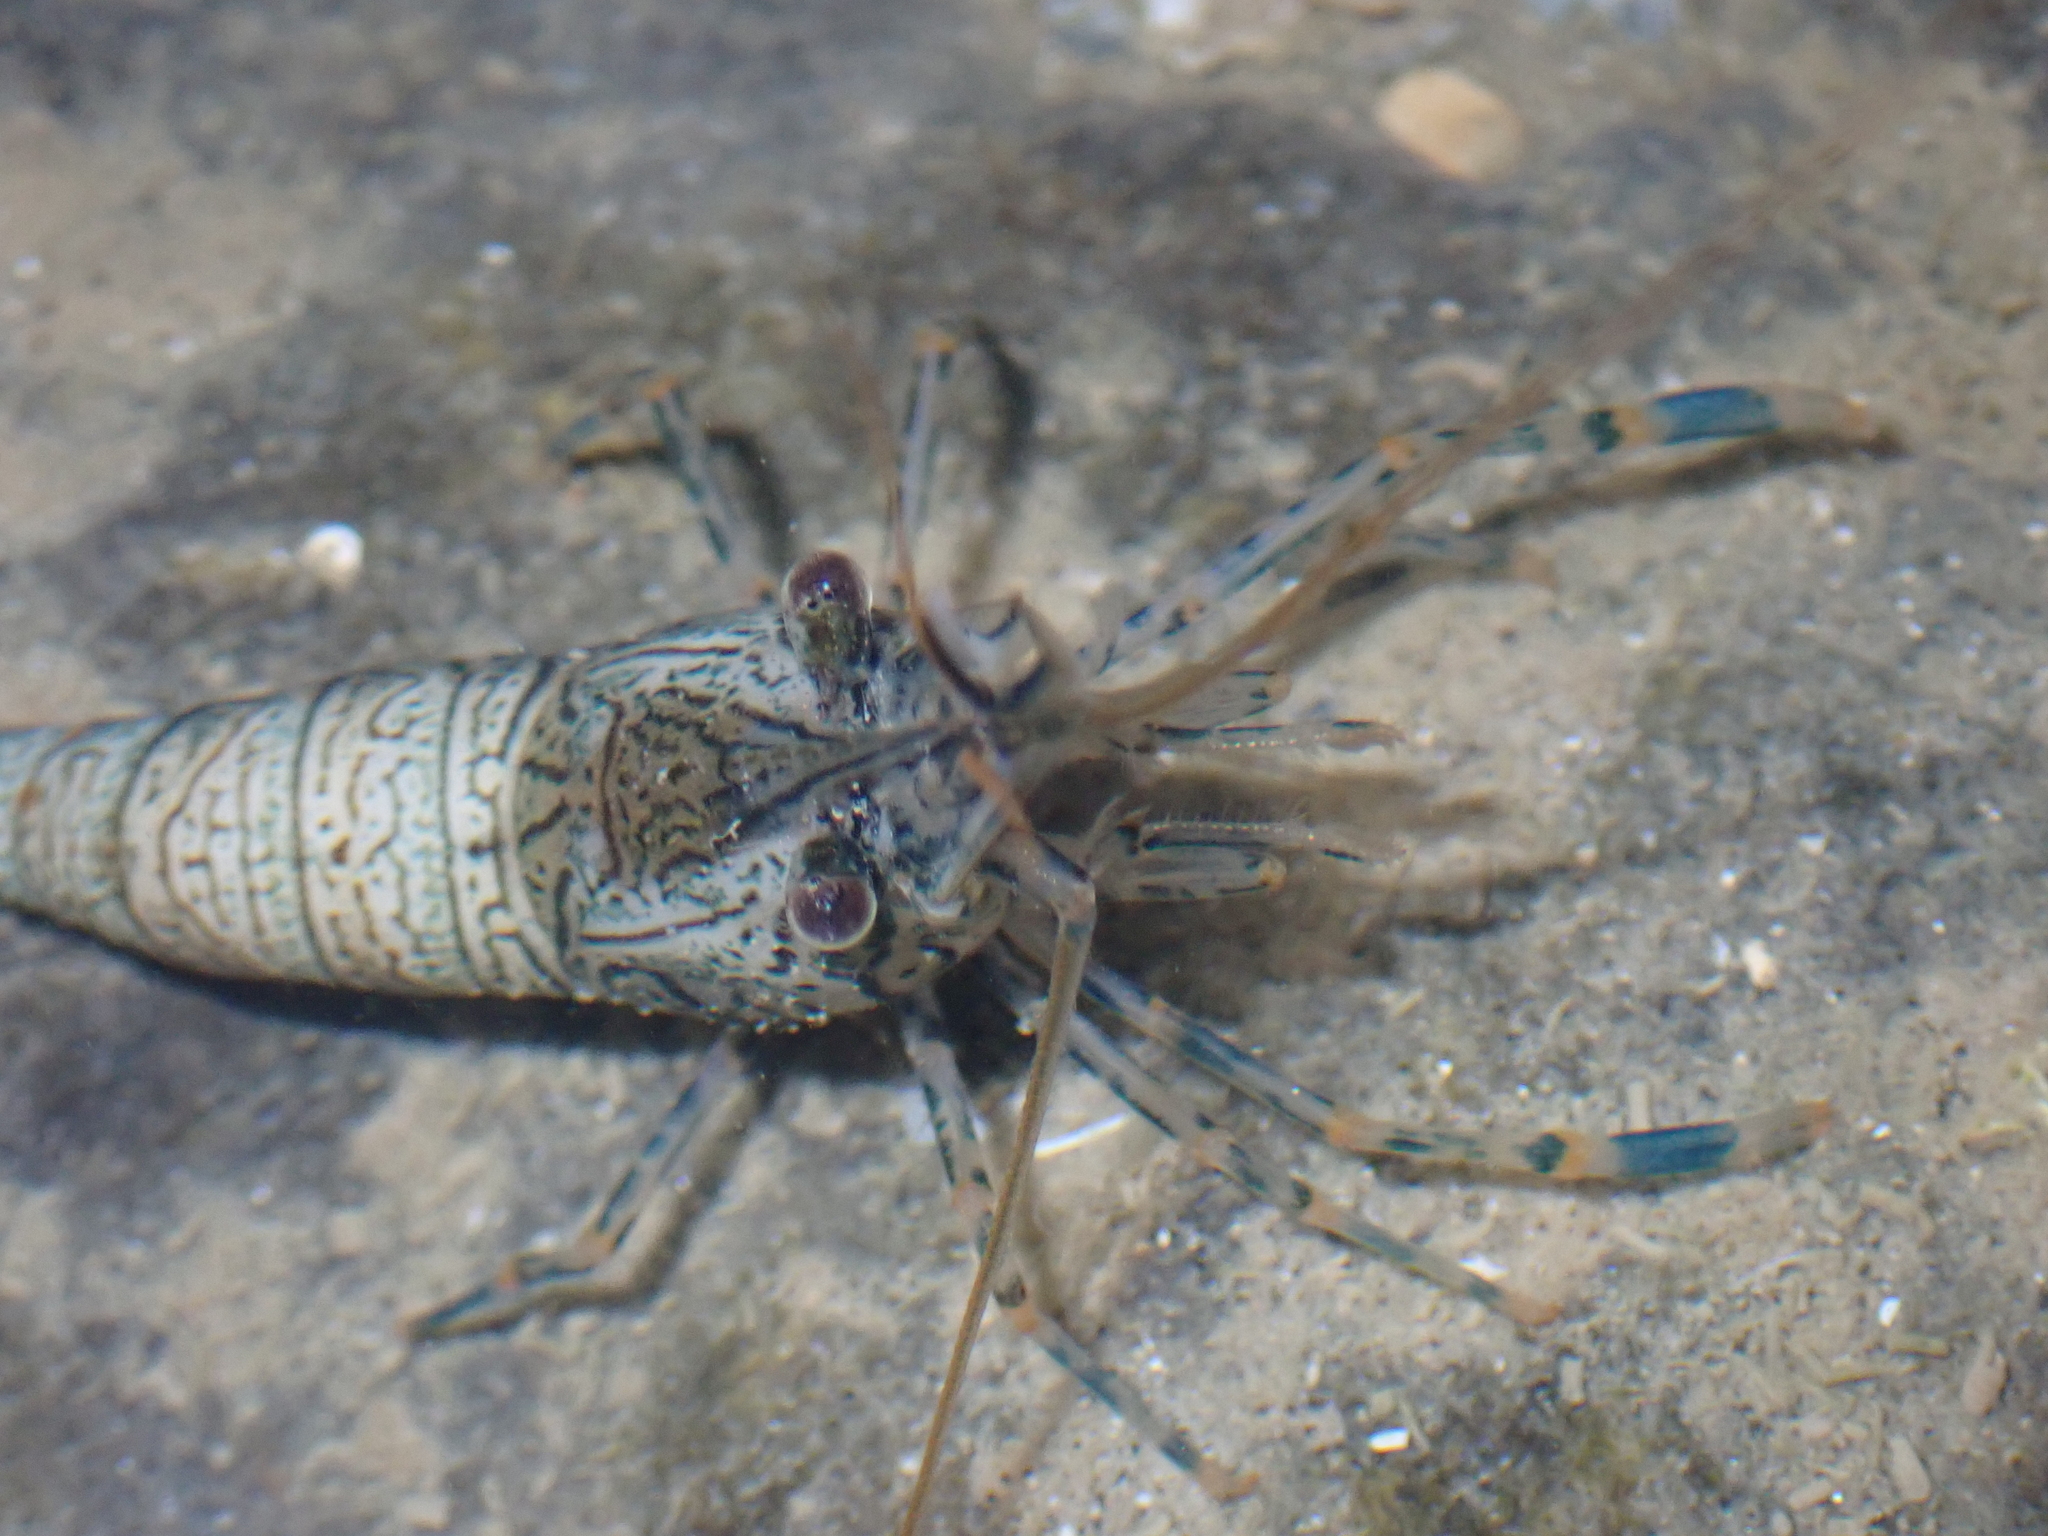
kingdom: Animalia
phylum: Arthropoda
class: Malacostraca
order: Decapoda
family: Palaemonidae
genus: Palaemon
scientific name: Palaemon elegans
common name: Grass prawm
